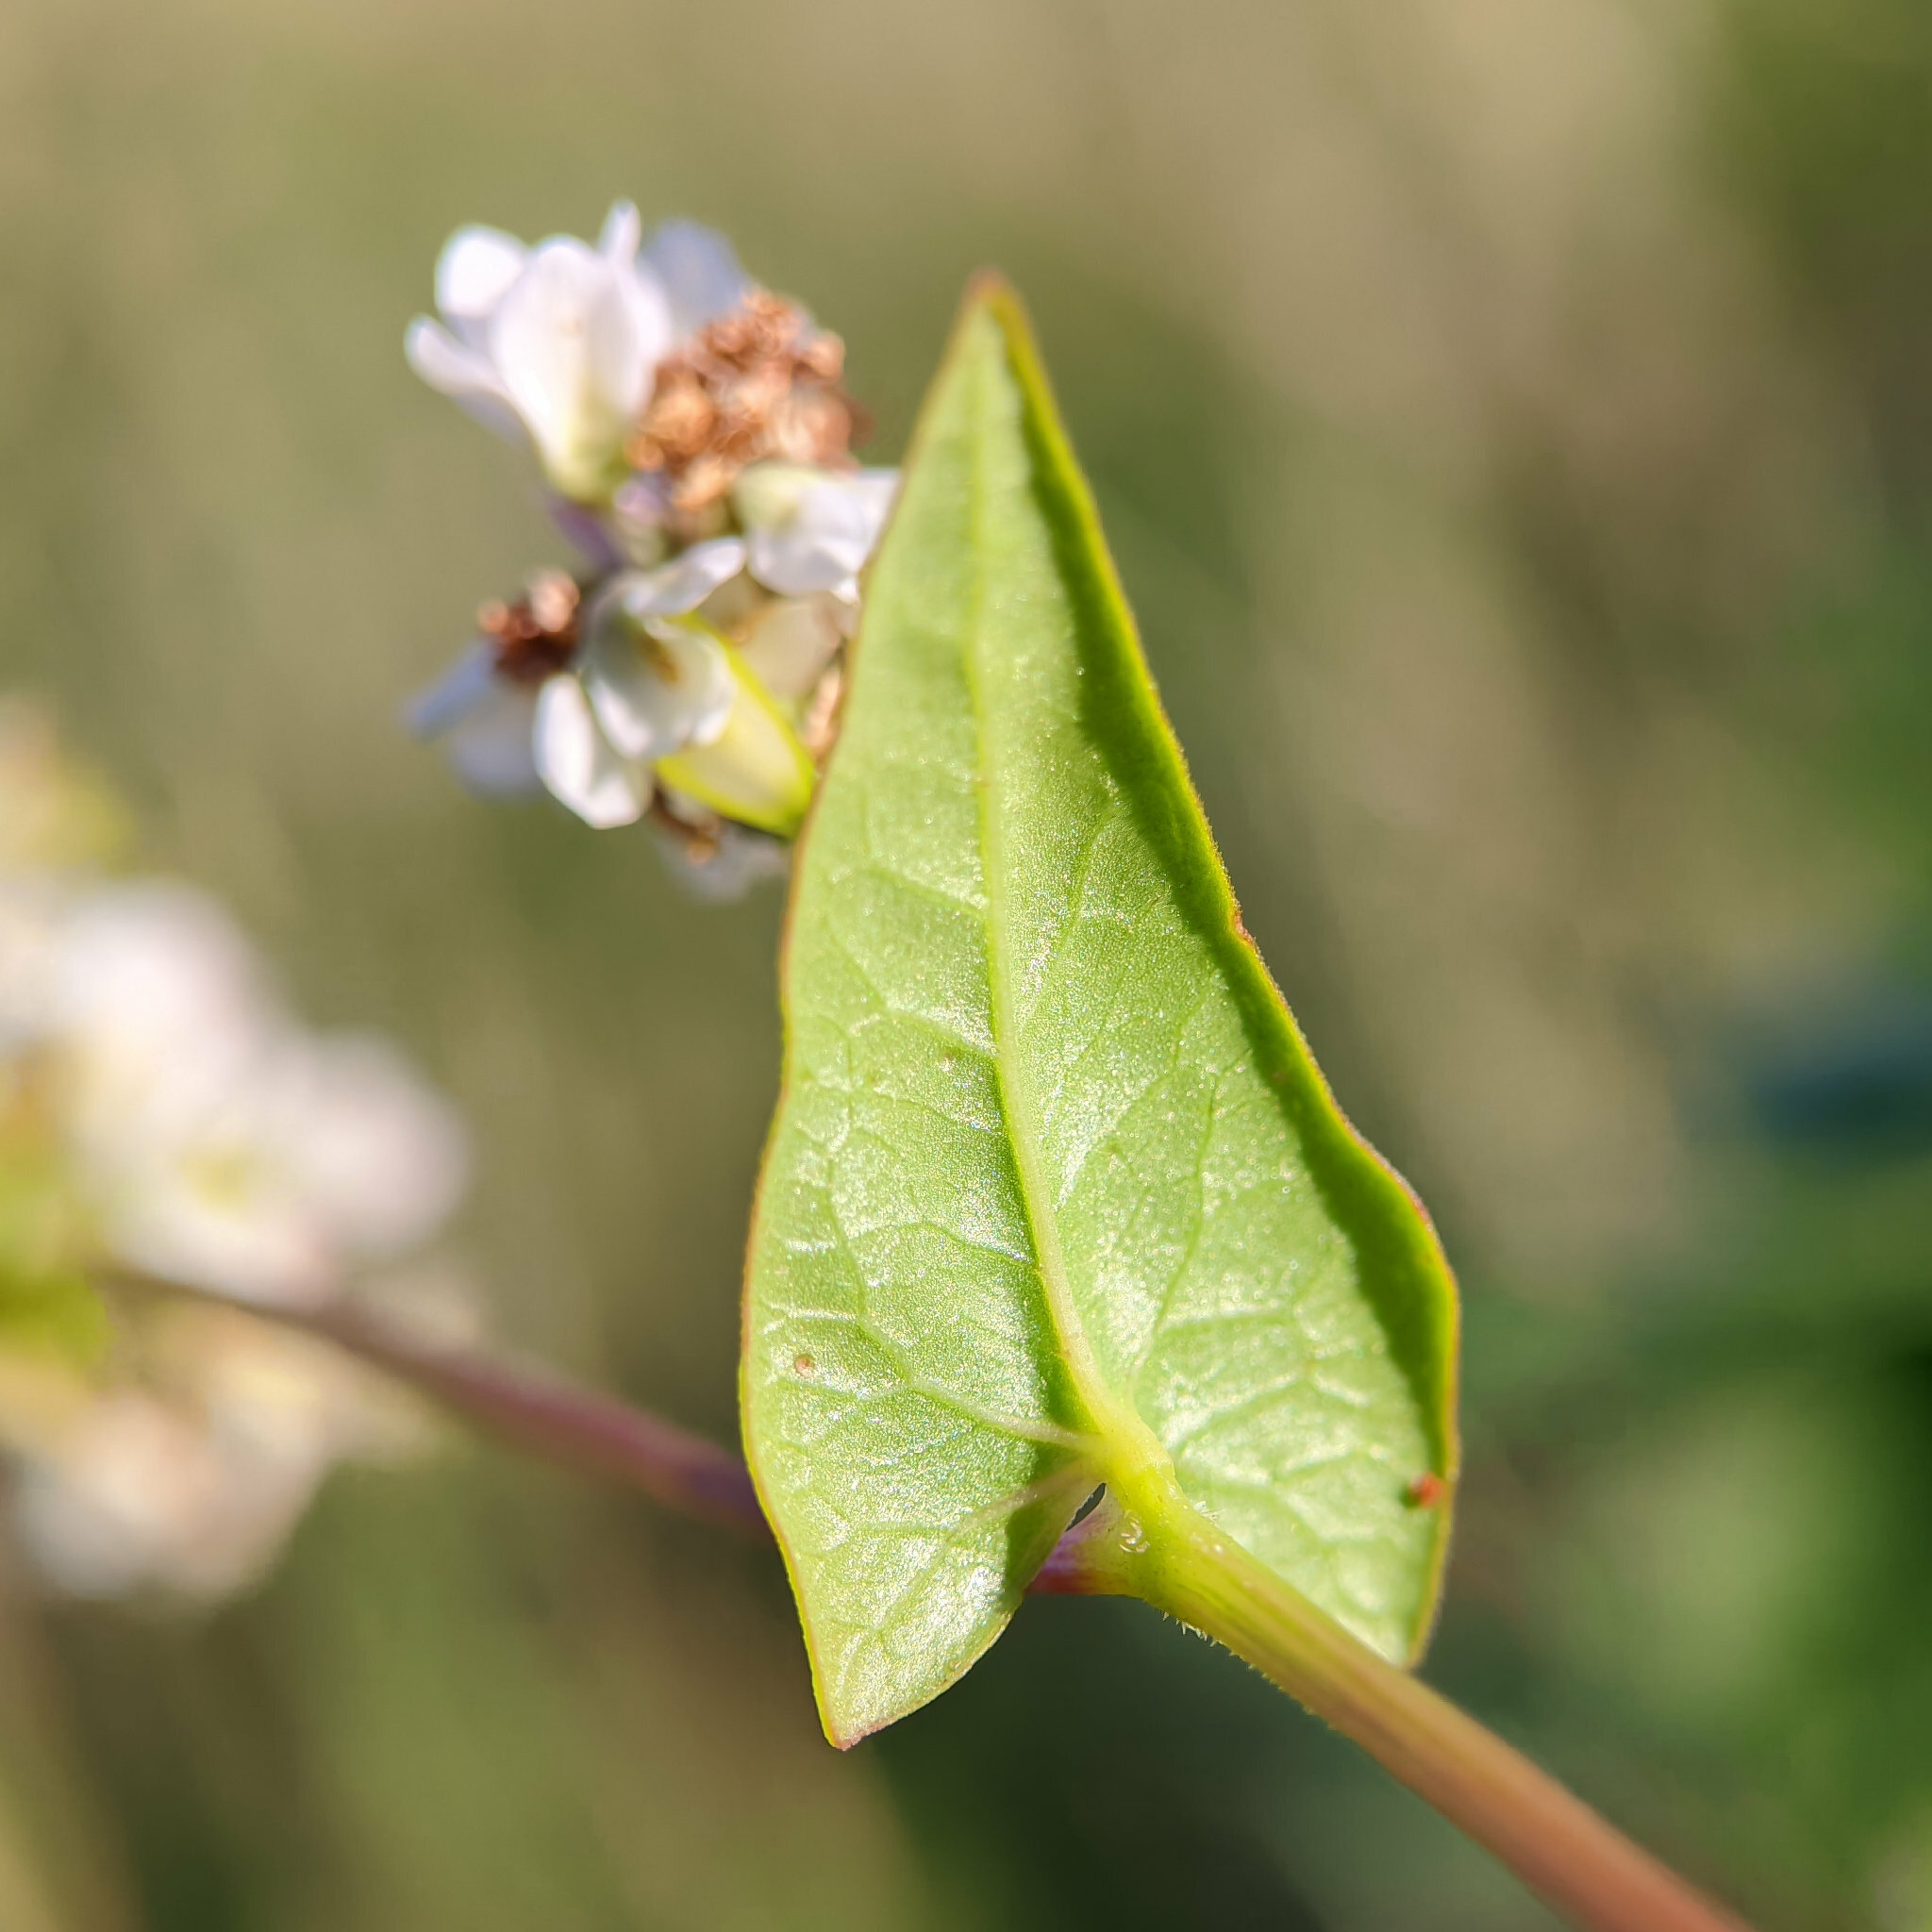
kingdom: Plantae
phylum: Tracheophyta
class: Magnoliopsida
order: Caryophyllales
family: Polygonaceae
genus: Fagopyrum
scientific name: Fagopyrum esculentum
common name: Buckwheat
